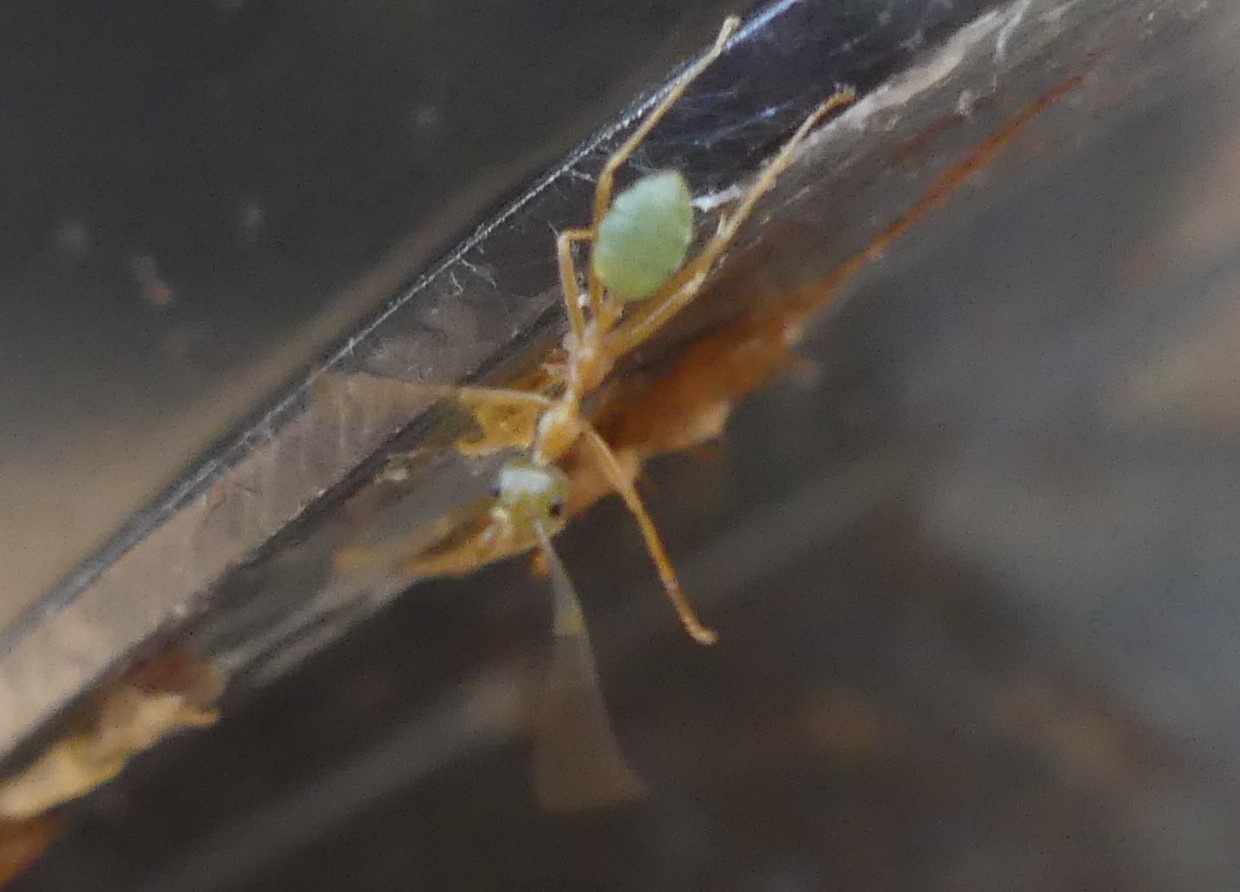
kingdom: Animalia
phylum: Arthropoda
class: Insecta
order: Hymenoptera
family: Formicidae
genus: Oecophylla
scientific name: Oecophylla smaragdina
